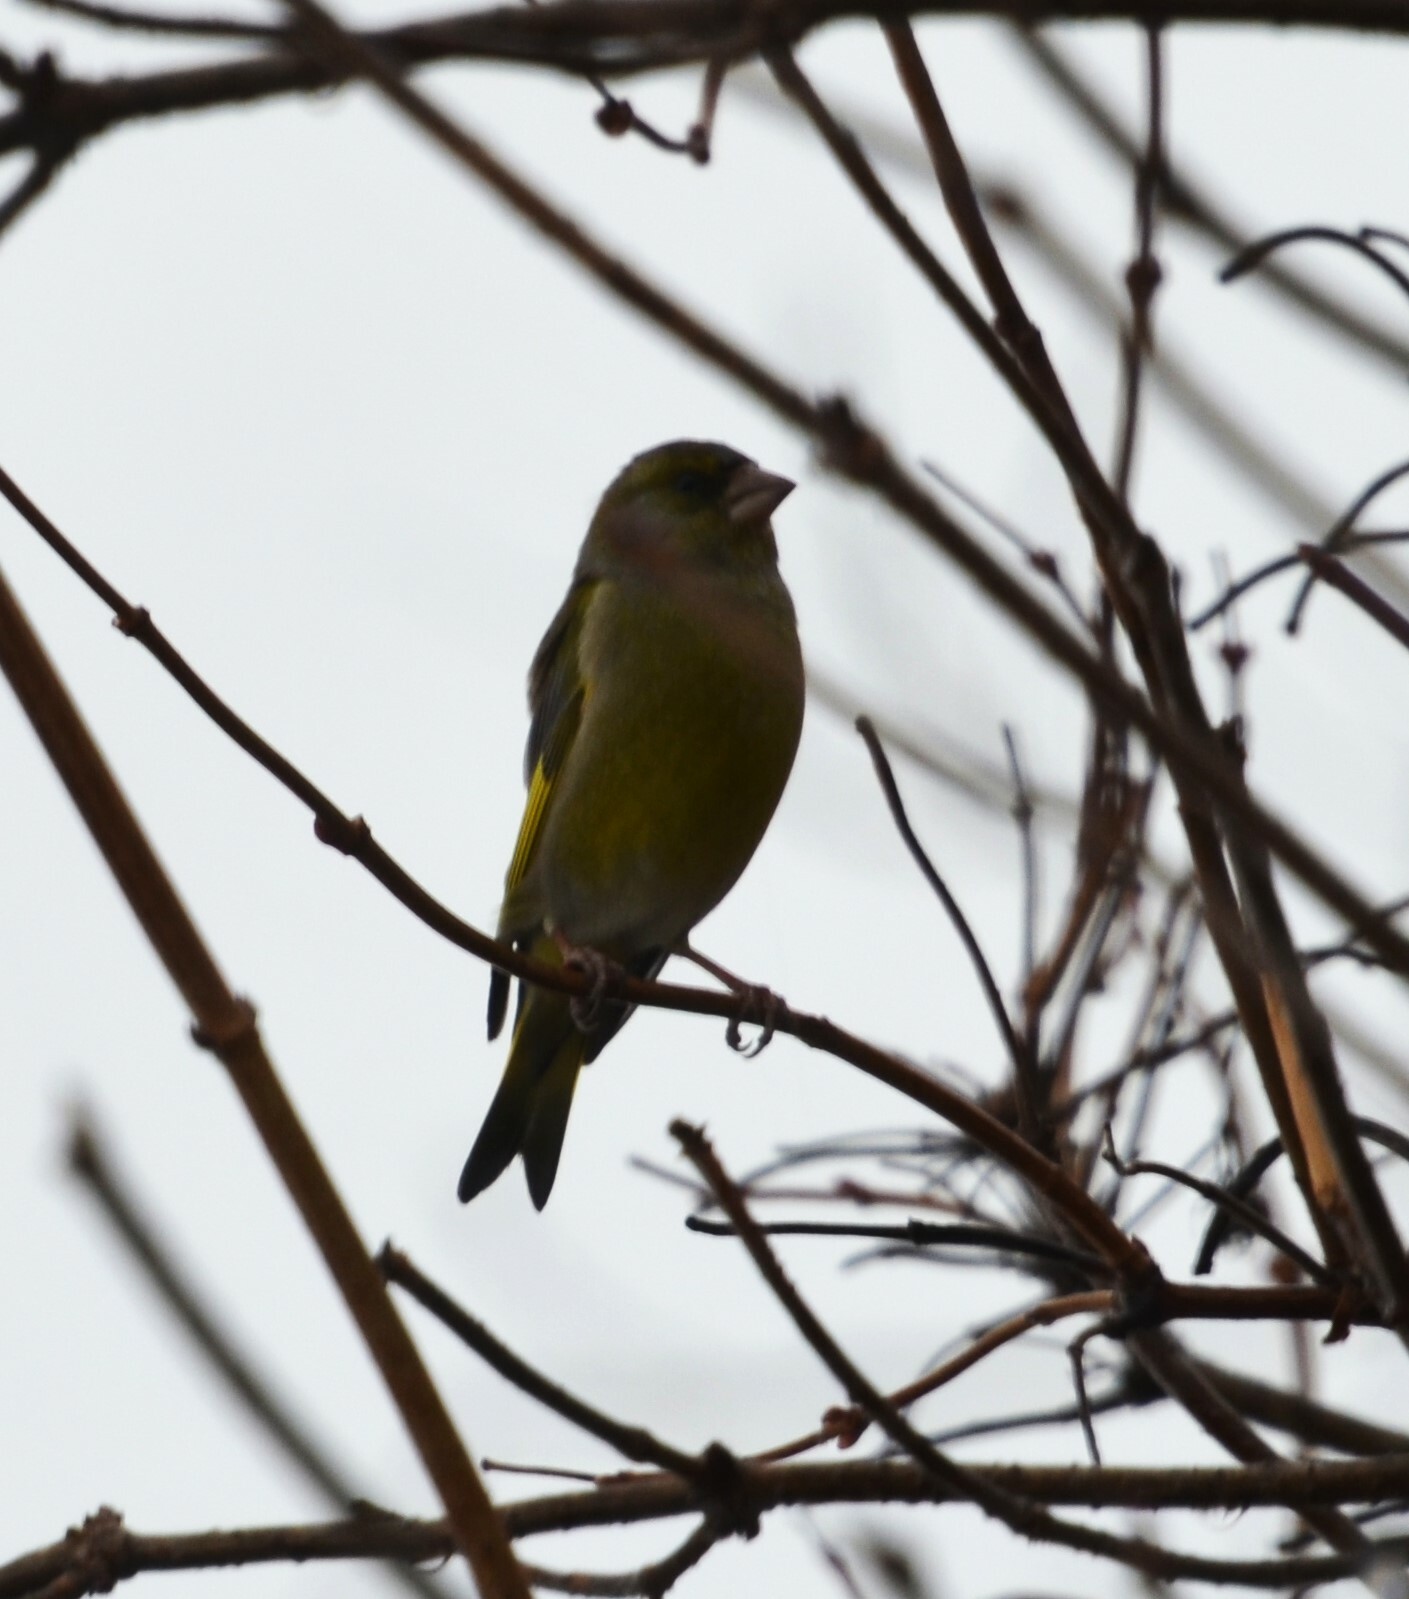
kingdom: Plantae
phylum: Tracheophyta
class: Liliopsida
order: Poales
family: Poaceae
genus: Chloris
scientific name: Chloris chloris
